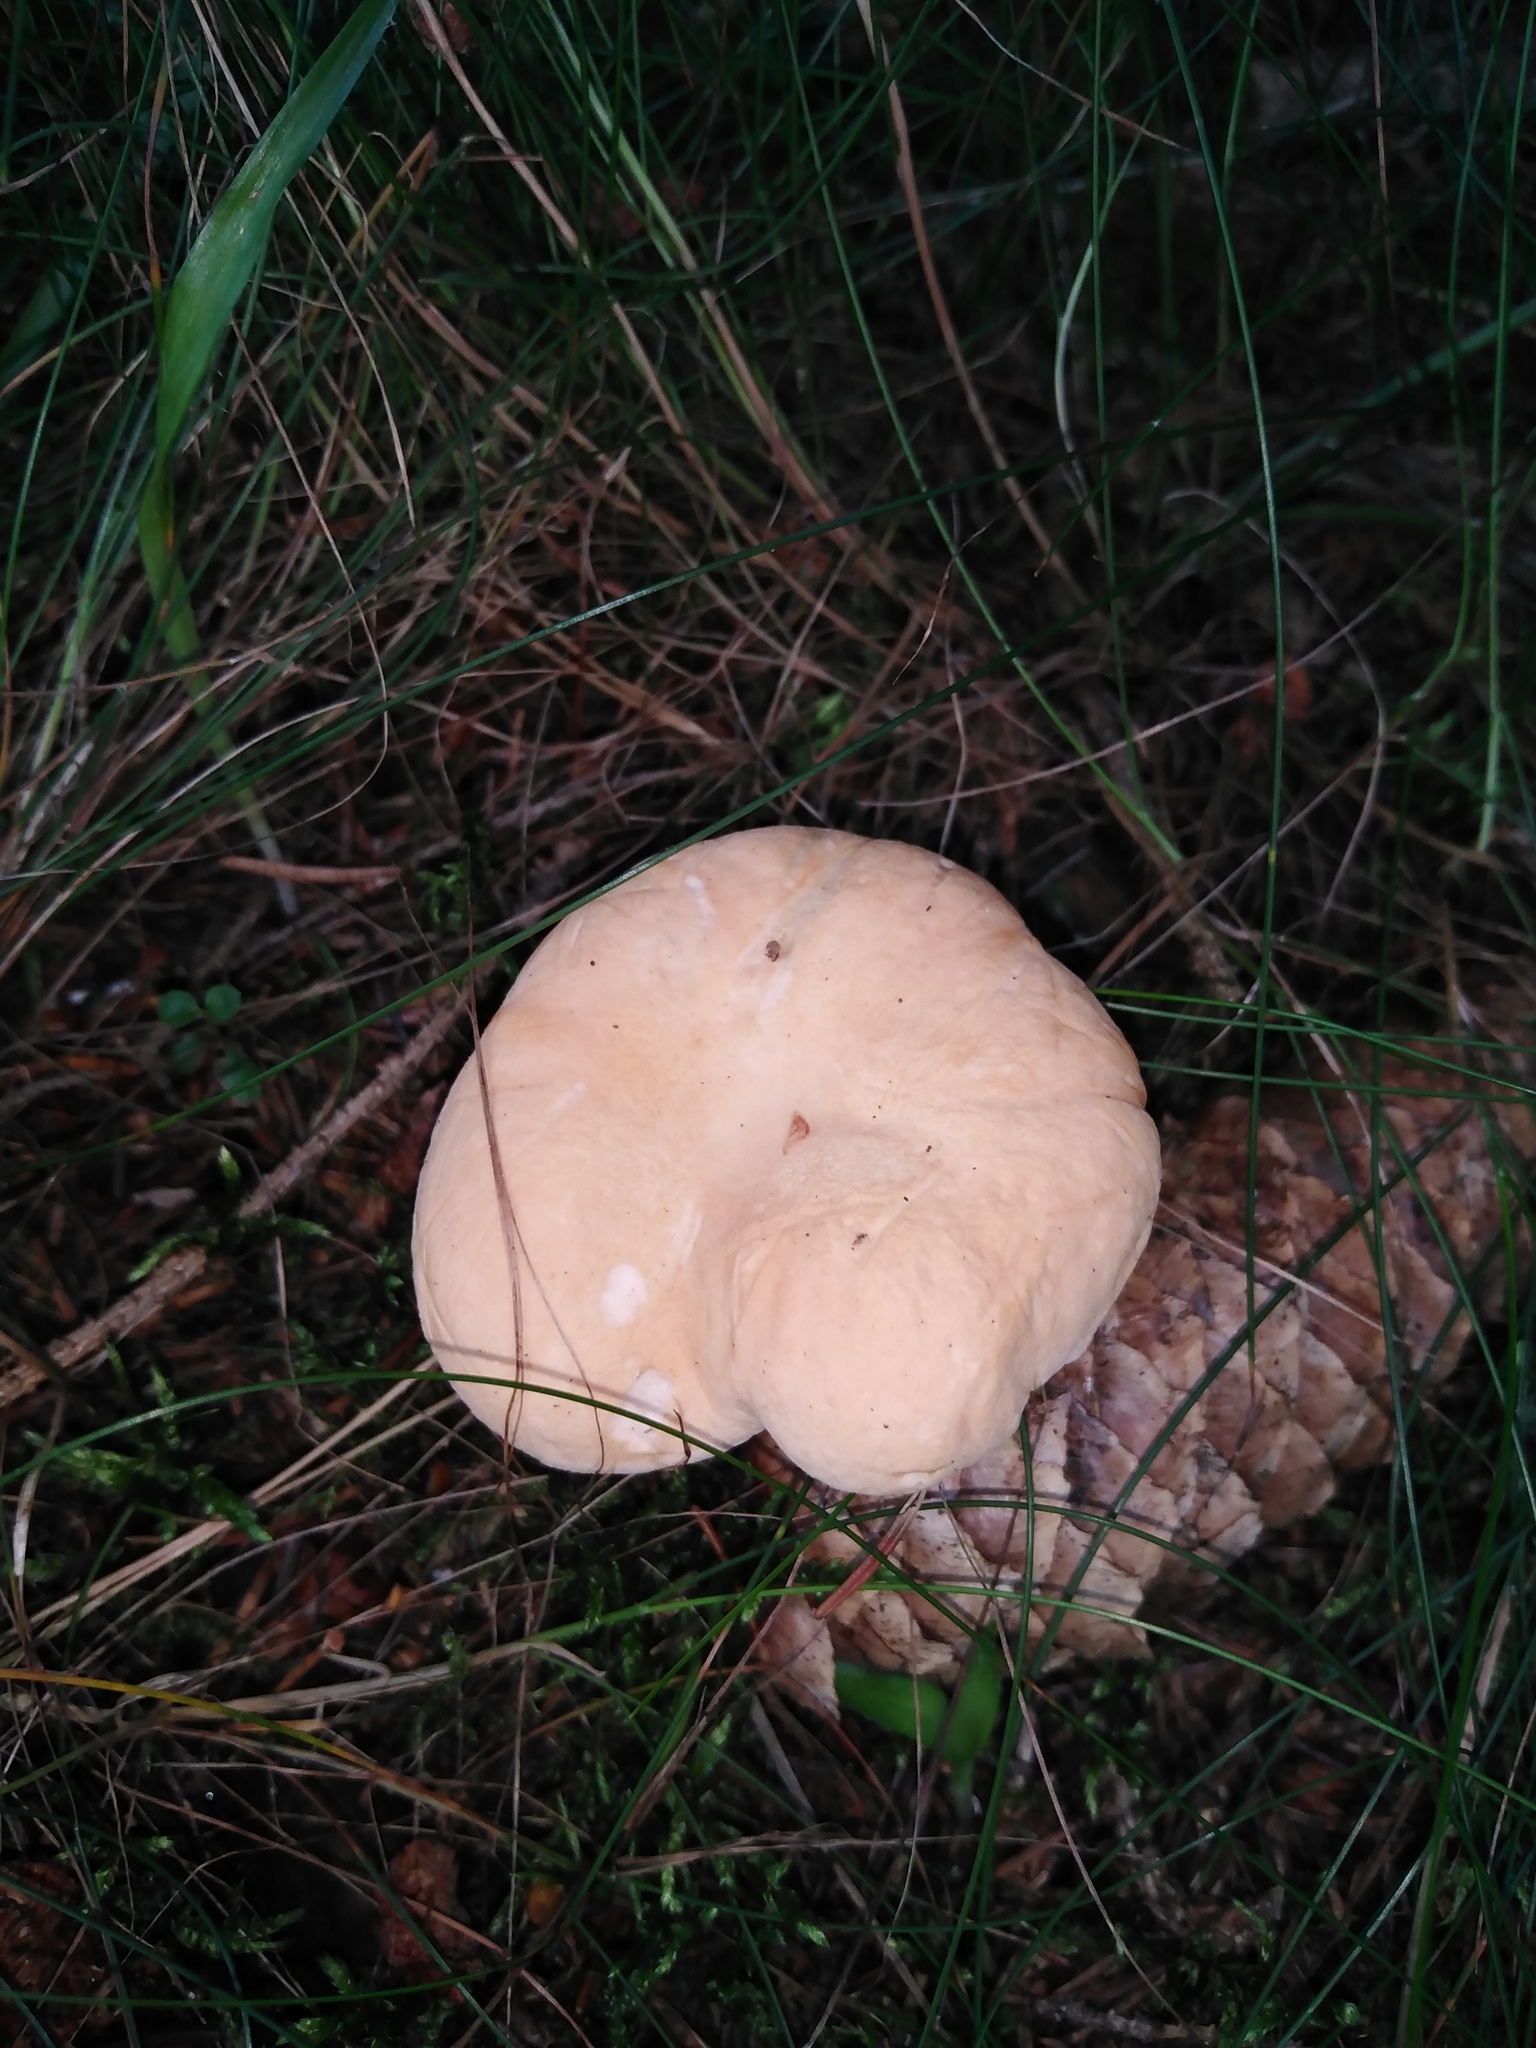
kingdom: Fungi
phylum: Basidiomycota
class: Agaricomycetes
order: Cantharellales
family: Hydnaceae
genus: Hydnum
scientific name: Hydnum repandum
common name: Wood hedgehog
